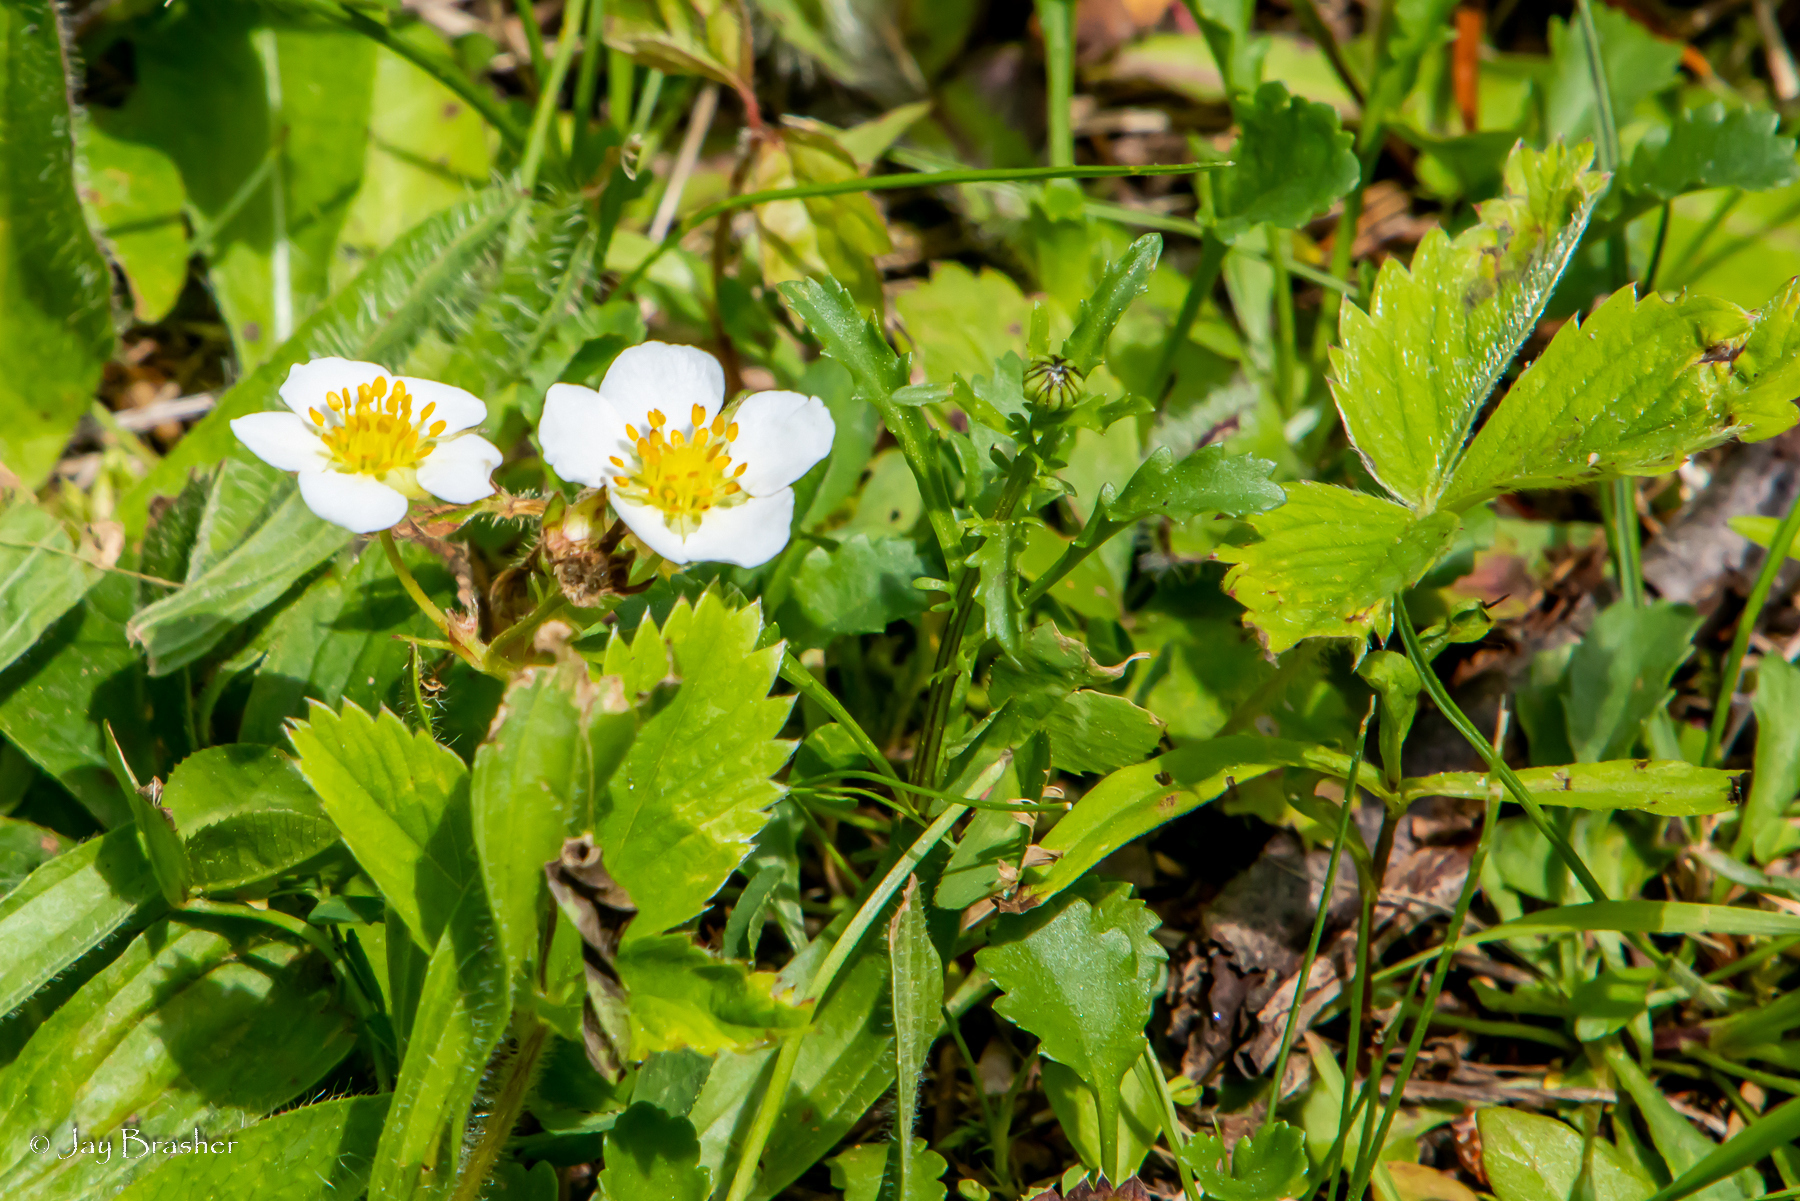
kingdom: Plantae
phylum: Tracheophyta
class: Magnoliopsida
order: Rosales
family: Rosaceae
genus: Fragaria
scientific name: Fragaria virginiana
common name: Thickleaved wild strawberry
